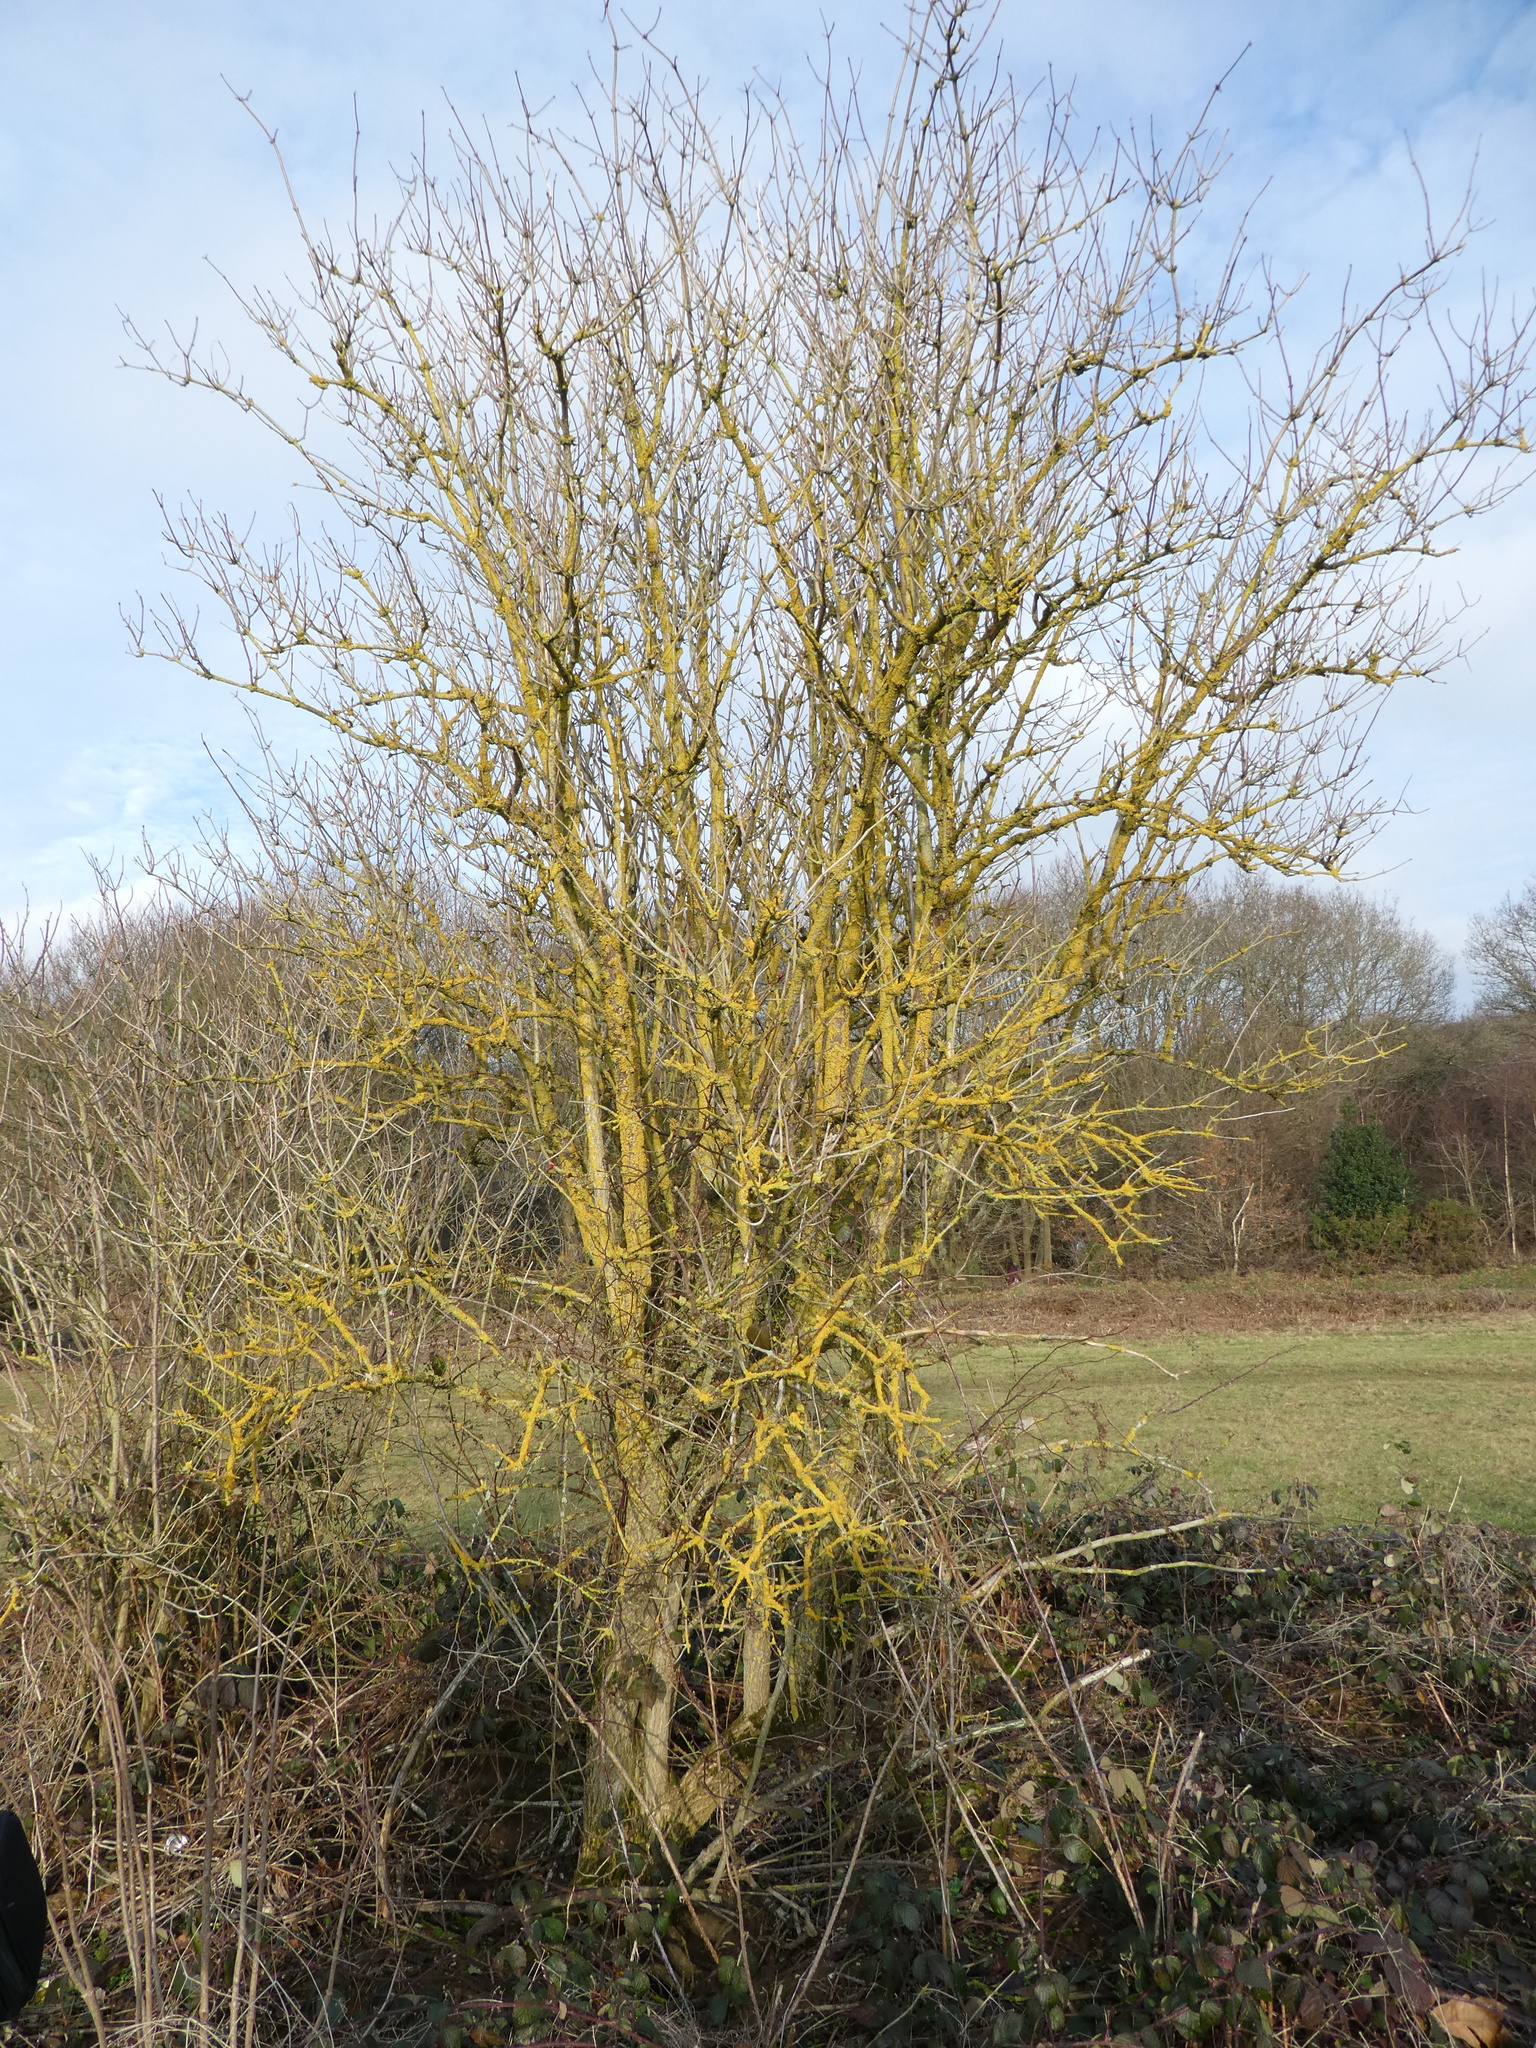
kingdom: Fungi
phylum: Ascomycota
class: Lecanoromycetes
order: Teloschistales
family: Teloschistaceae
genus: Xanthoria
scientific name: Xanthoria parietina
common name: Common orange lichen
